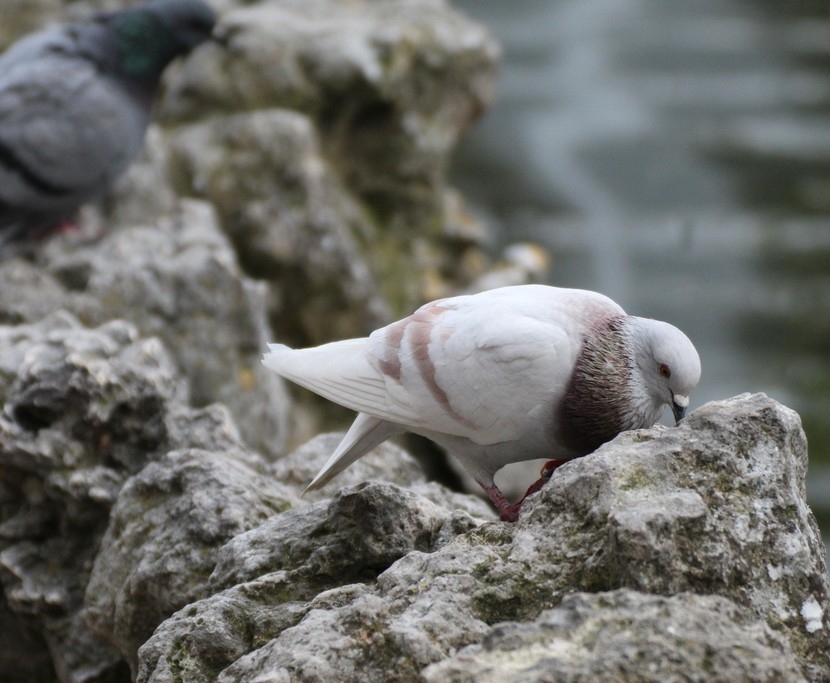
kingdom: Animalia
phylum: Chordata
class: Aves
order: Columbiformes
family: Columbidae
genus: Columba
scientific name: Columba livia
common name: Rock pigeon
